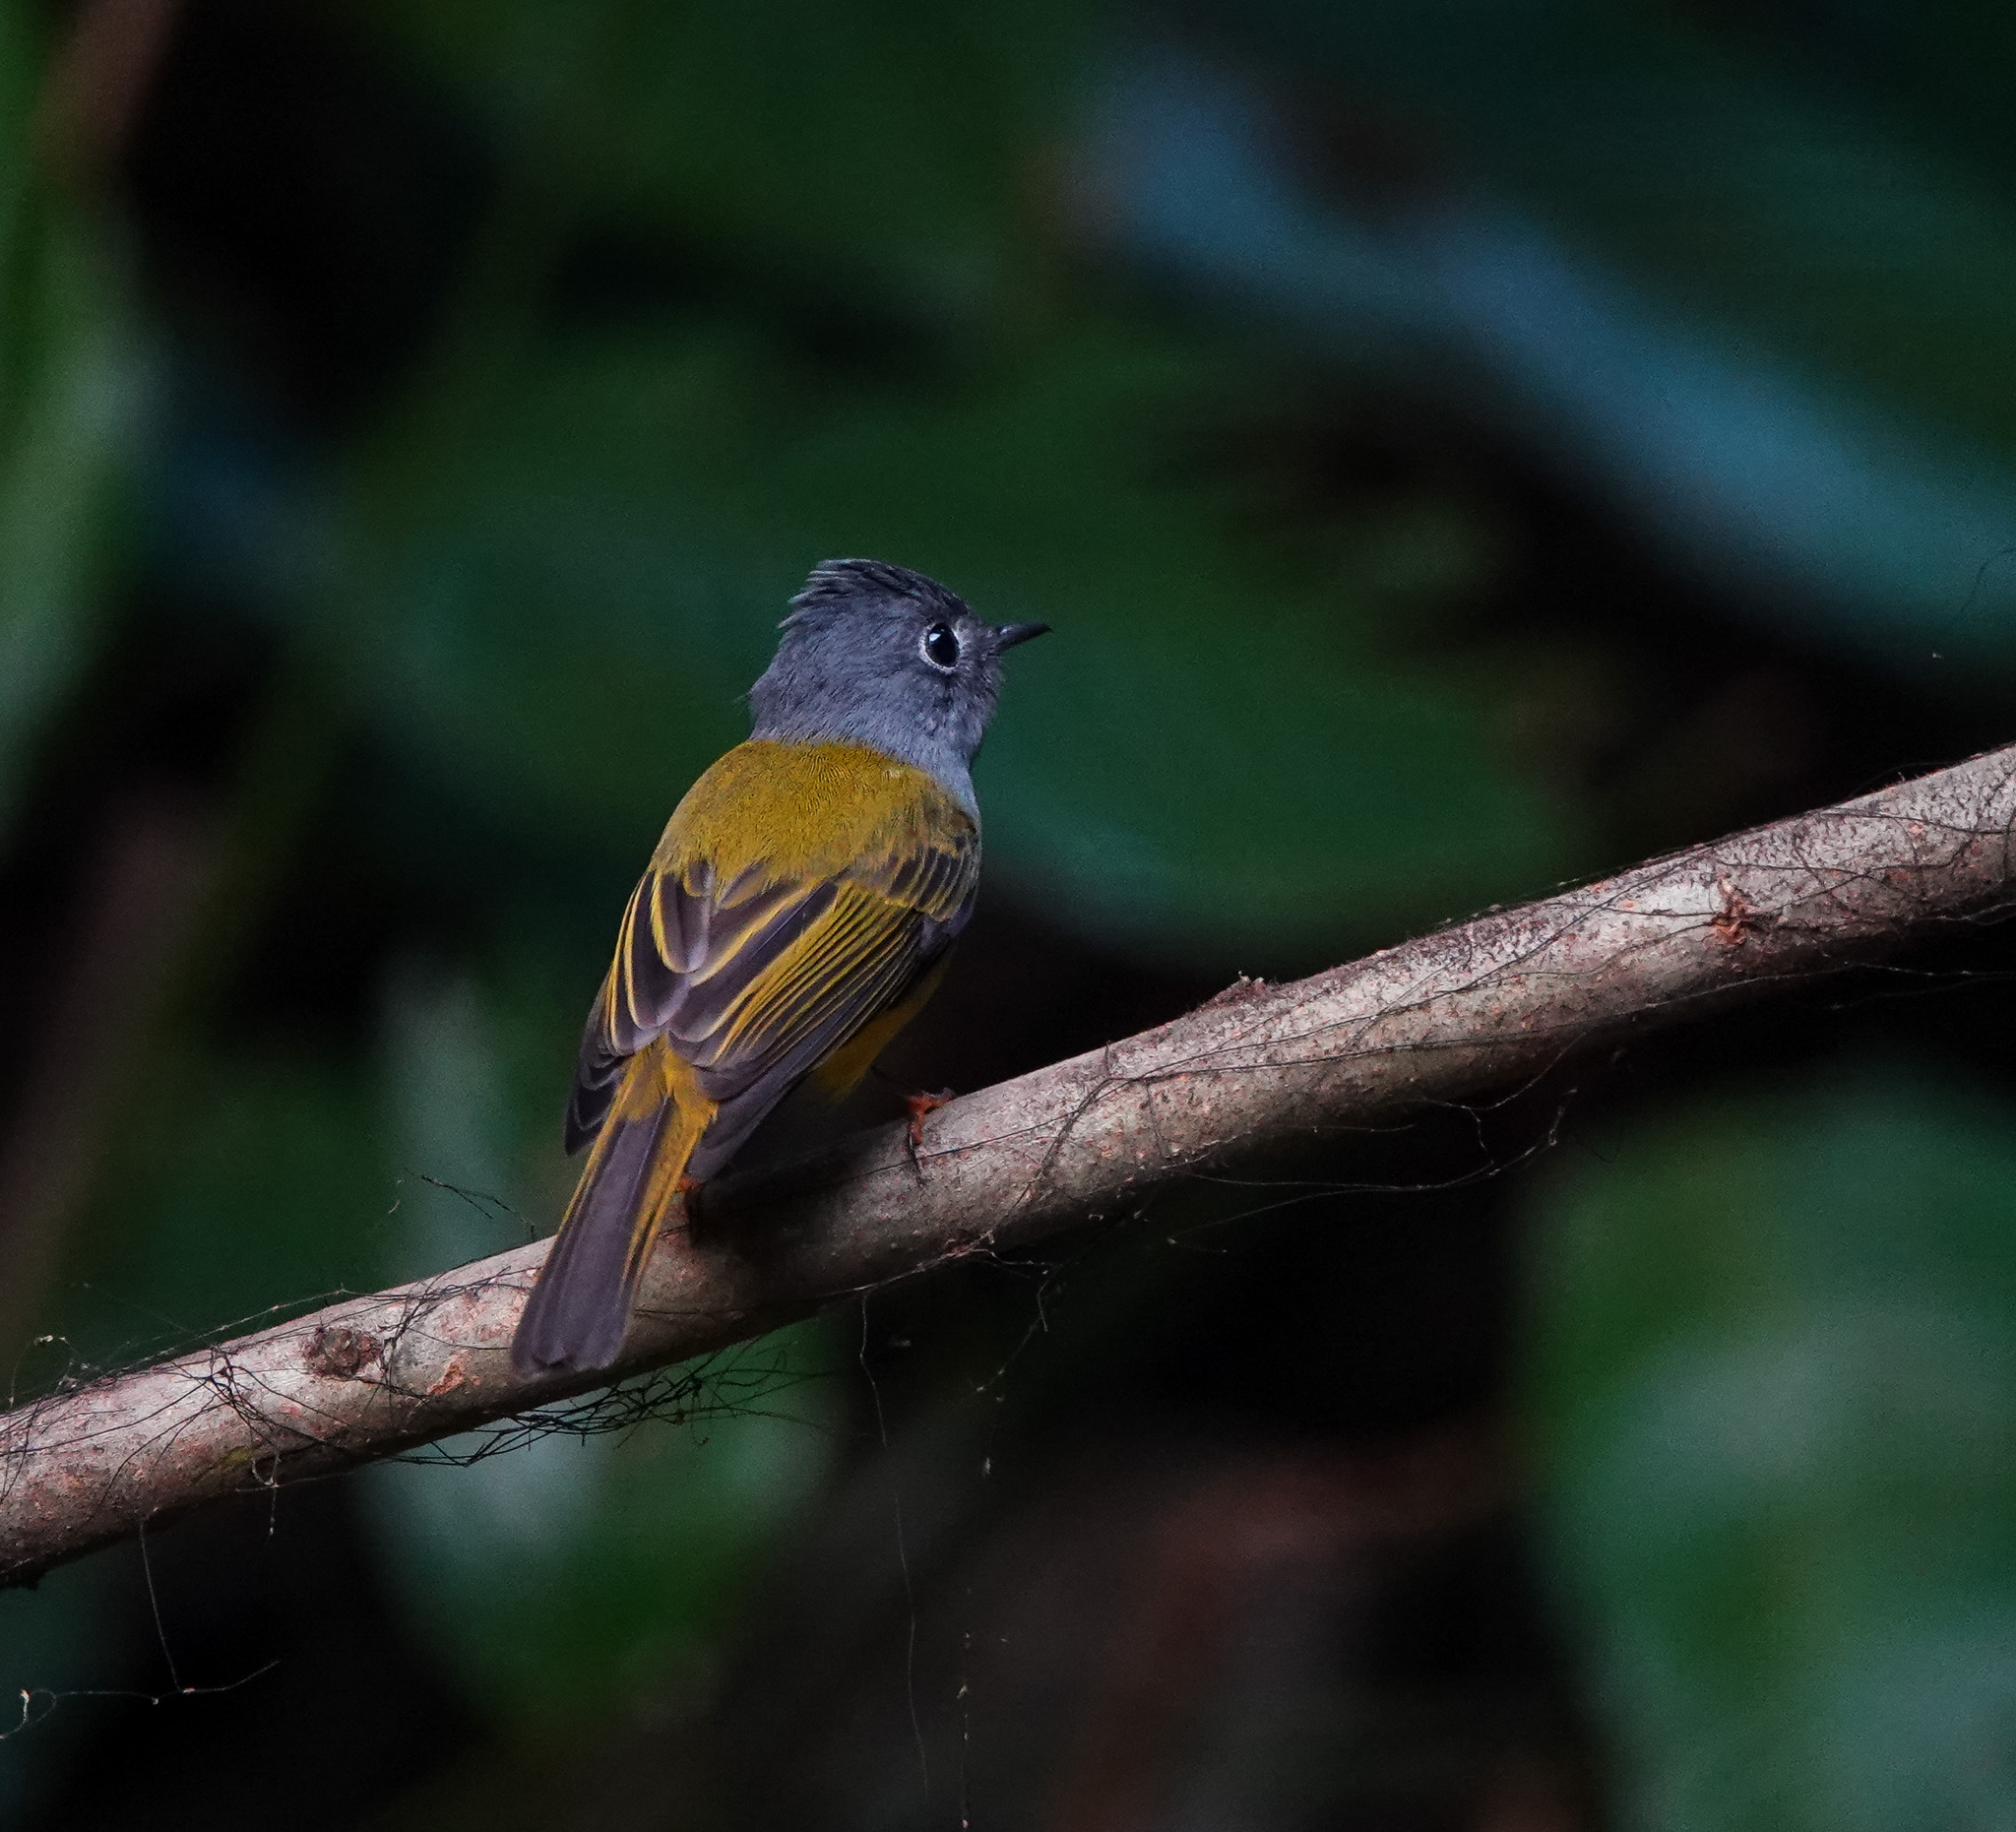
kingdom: Animalia
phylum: Chordata
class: Aves
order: Passeriformes
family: Stenostiridae
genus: Culicicapa
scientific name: Culicicapa ceylonensis
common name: Grey-headed canary-flycatcher
